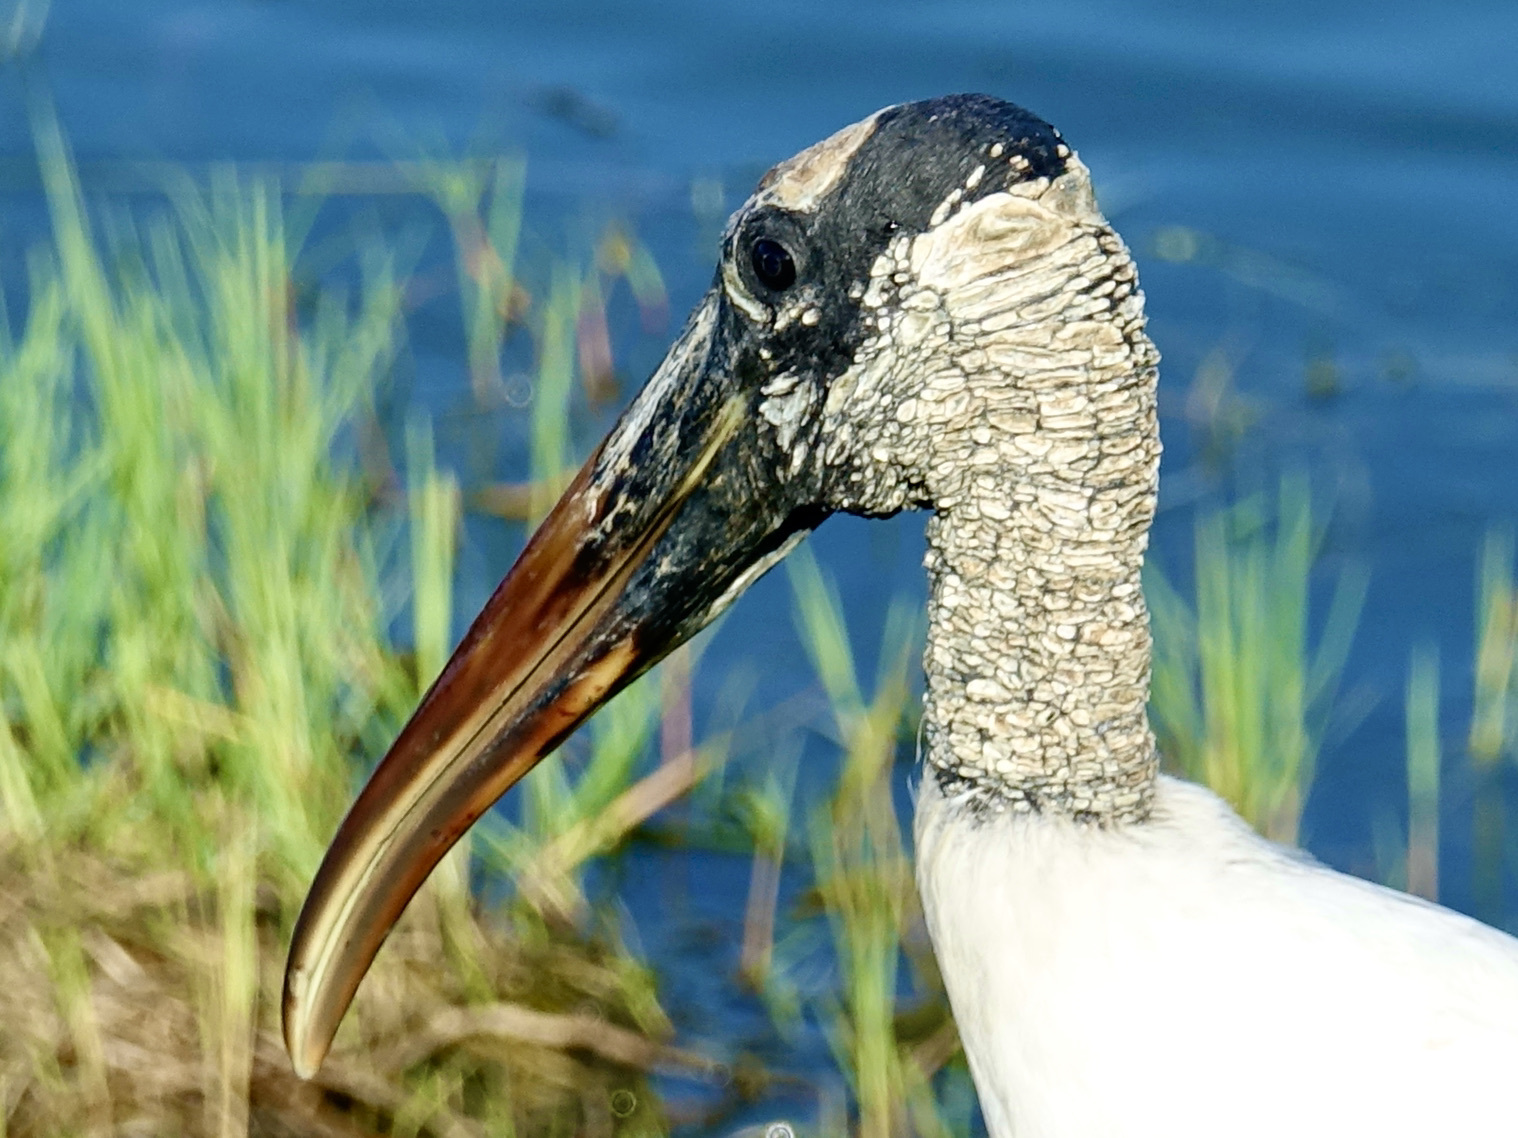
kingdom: Animalia
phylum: Chordata
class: Aves
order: Ciconiiformes
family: Ciconiidae
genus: Mycteria
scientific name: Mycteria americana
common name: Wood stork
